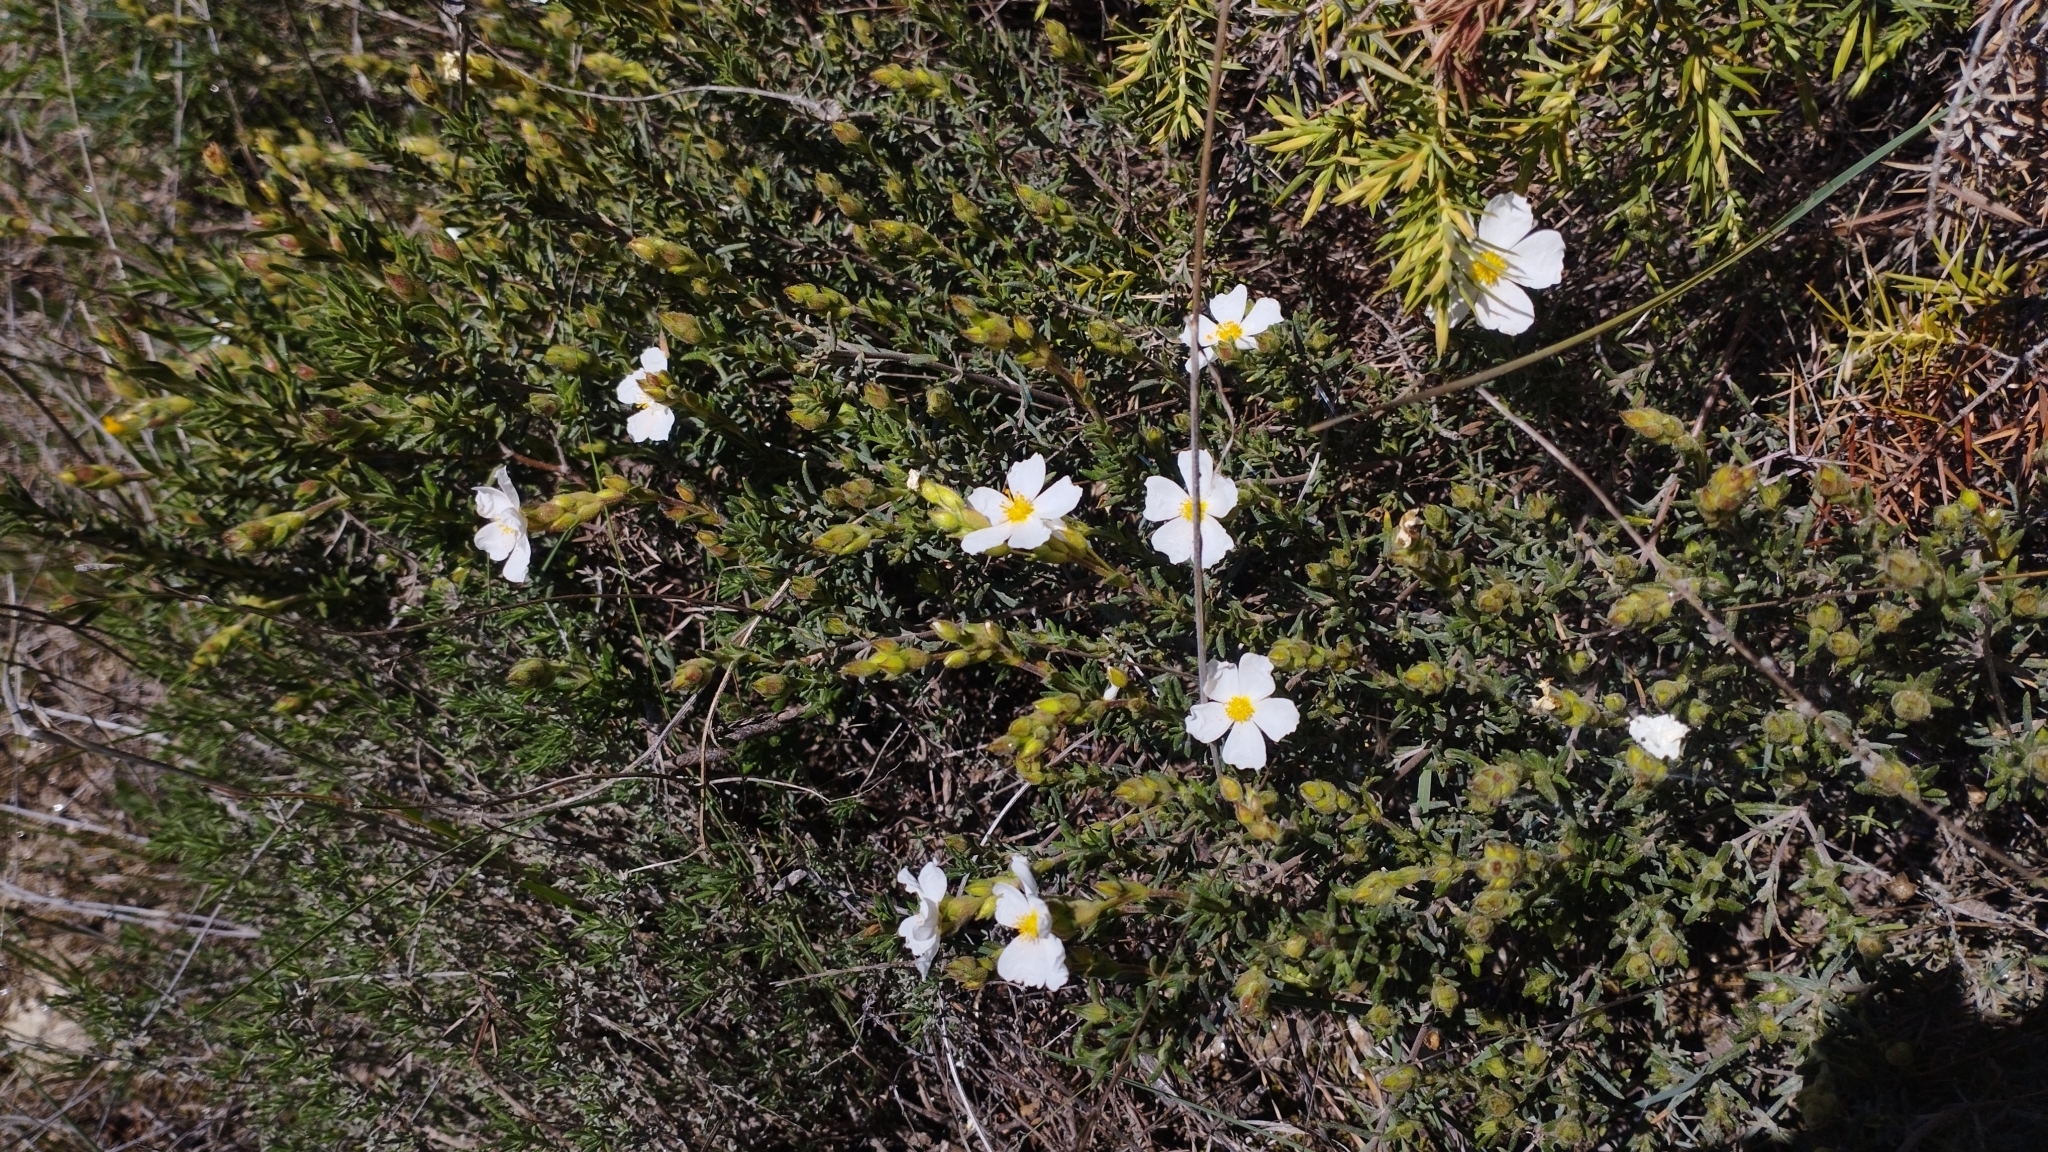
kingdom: Plantae
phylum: Tracheophyta
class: Magnoliopsida
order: Malvales
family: Cistaceae
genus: Halimium
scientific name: Halimium umbellatum
